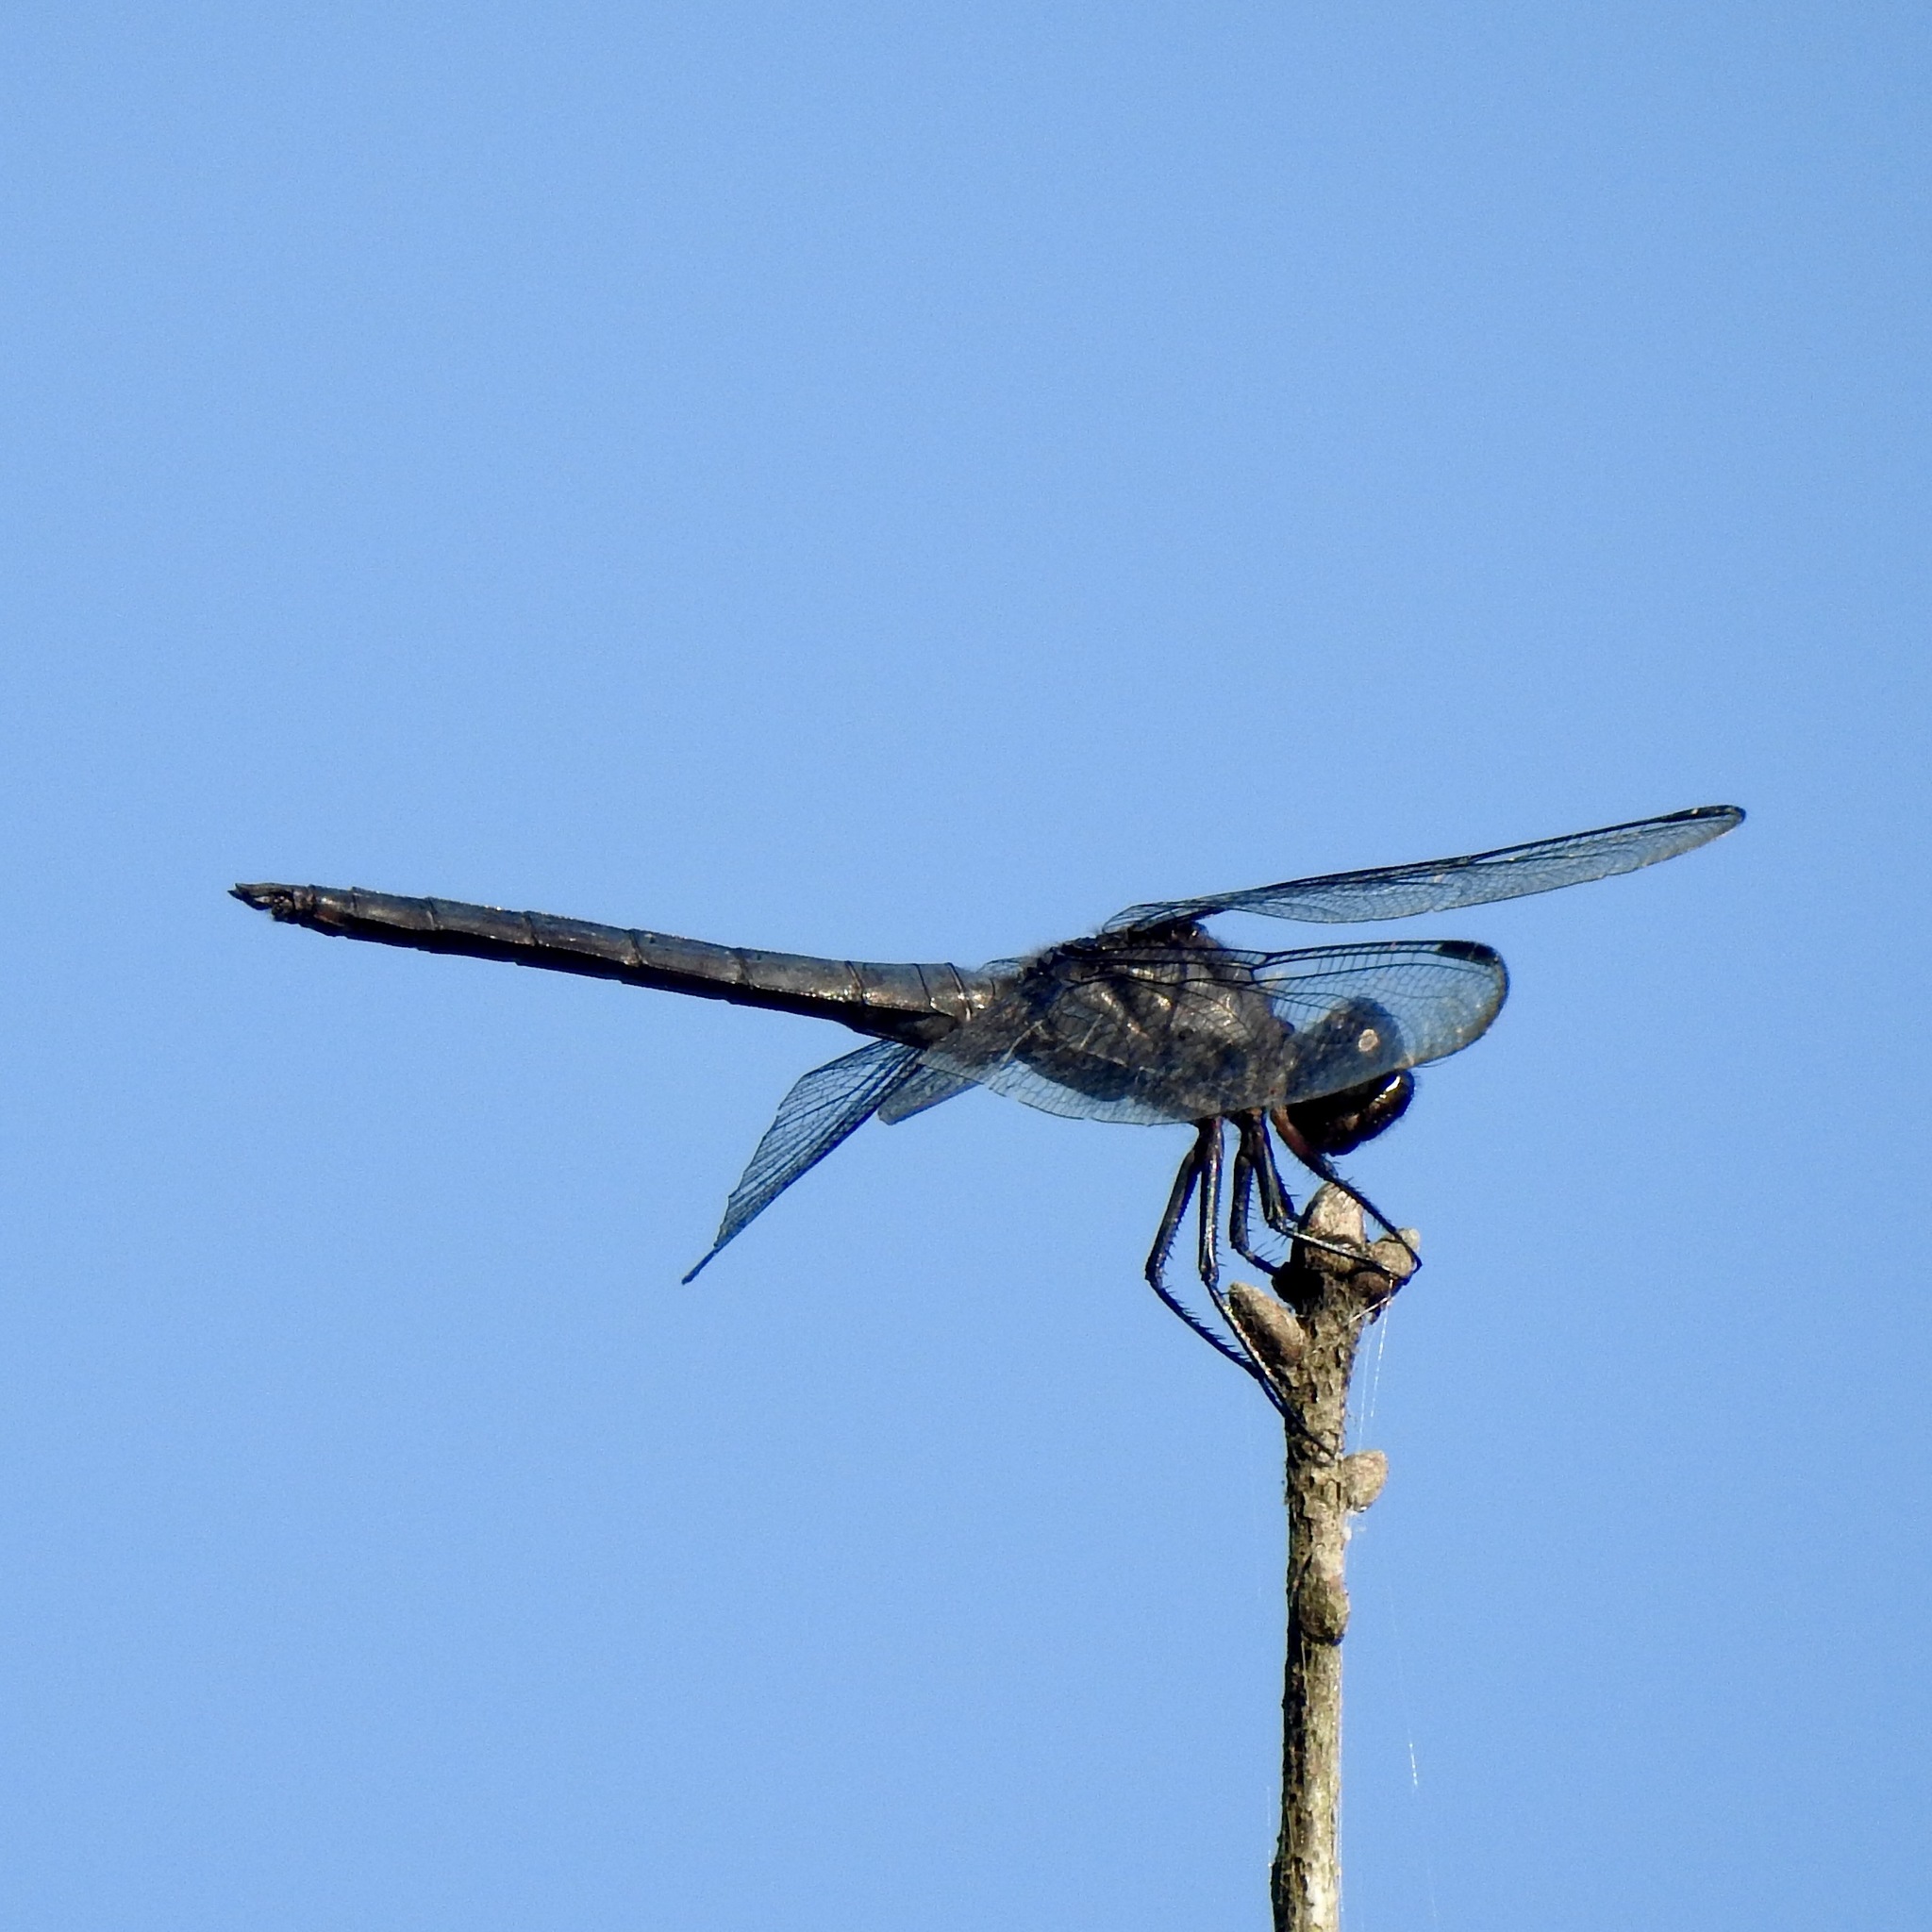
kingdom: Animalia
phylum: Arthropoda
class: Insecta
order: Odonata
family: Libellulidae
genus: Libellula
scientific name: Libellula incesta
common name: Slaty skimmer
